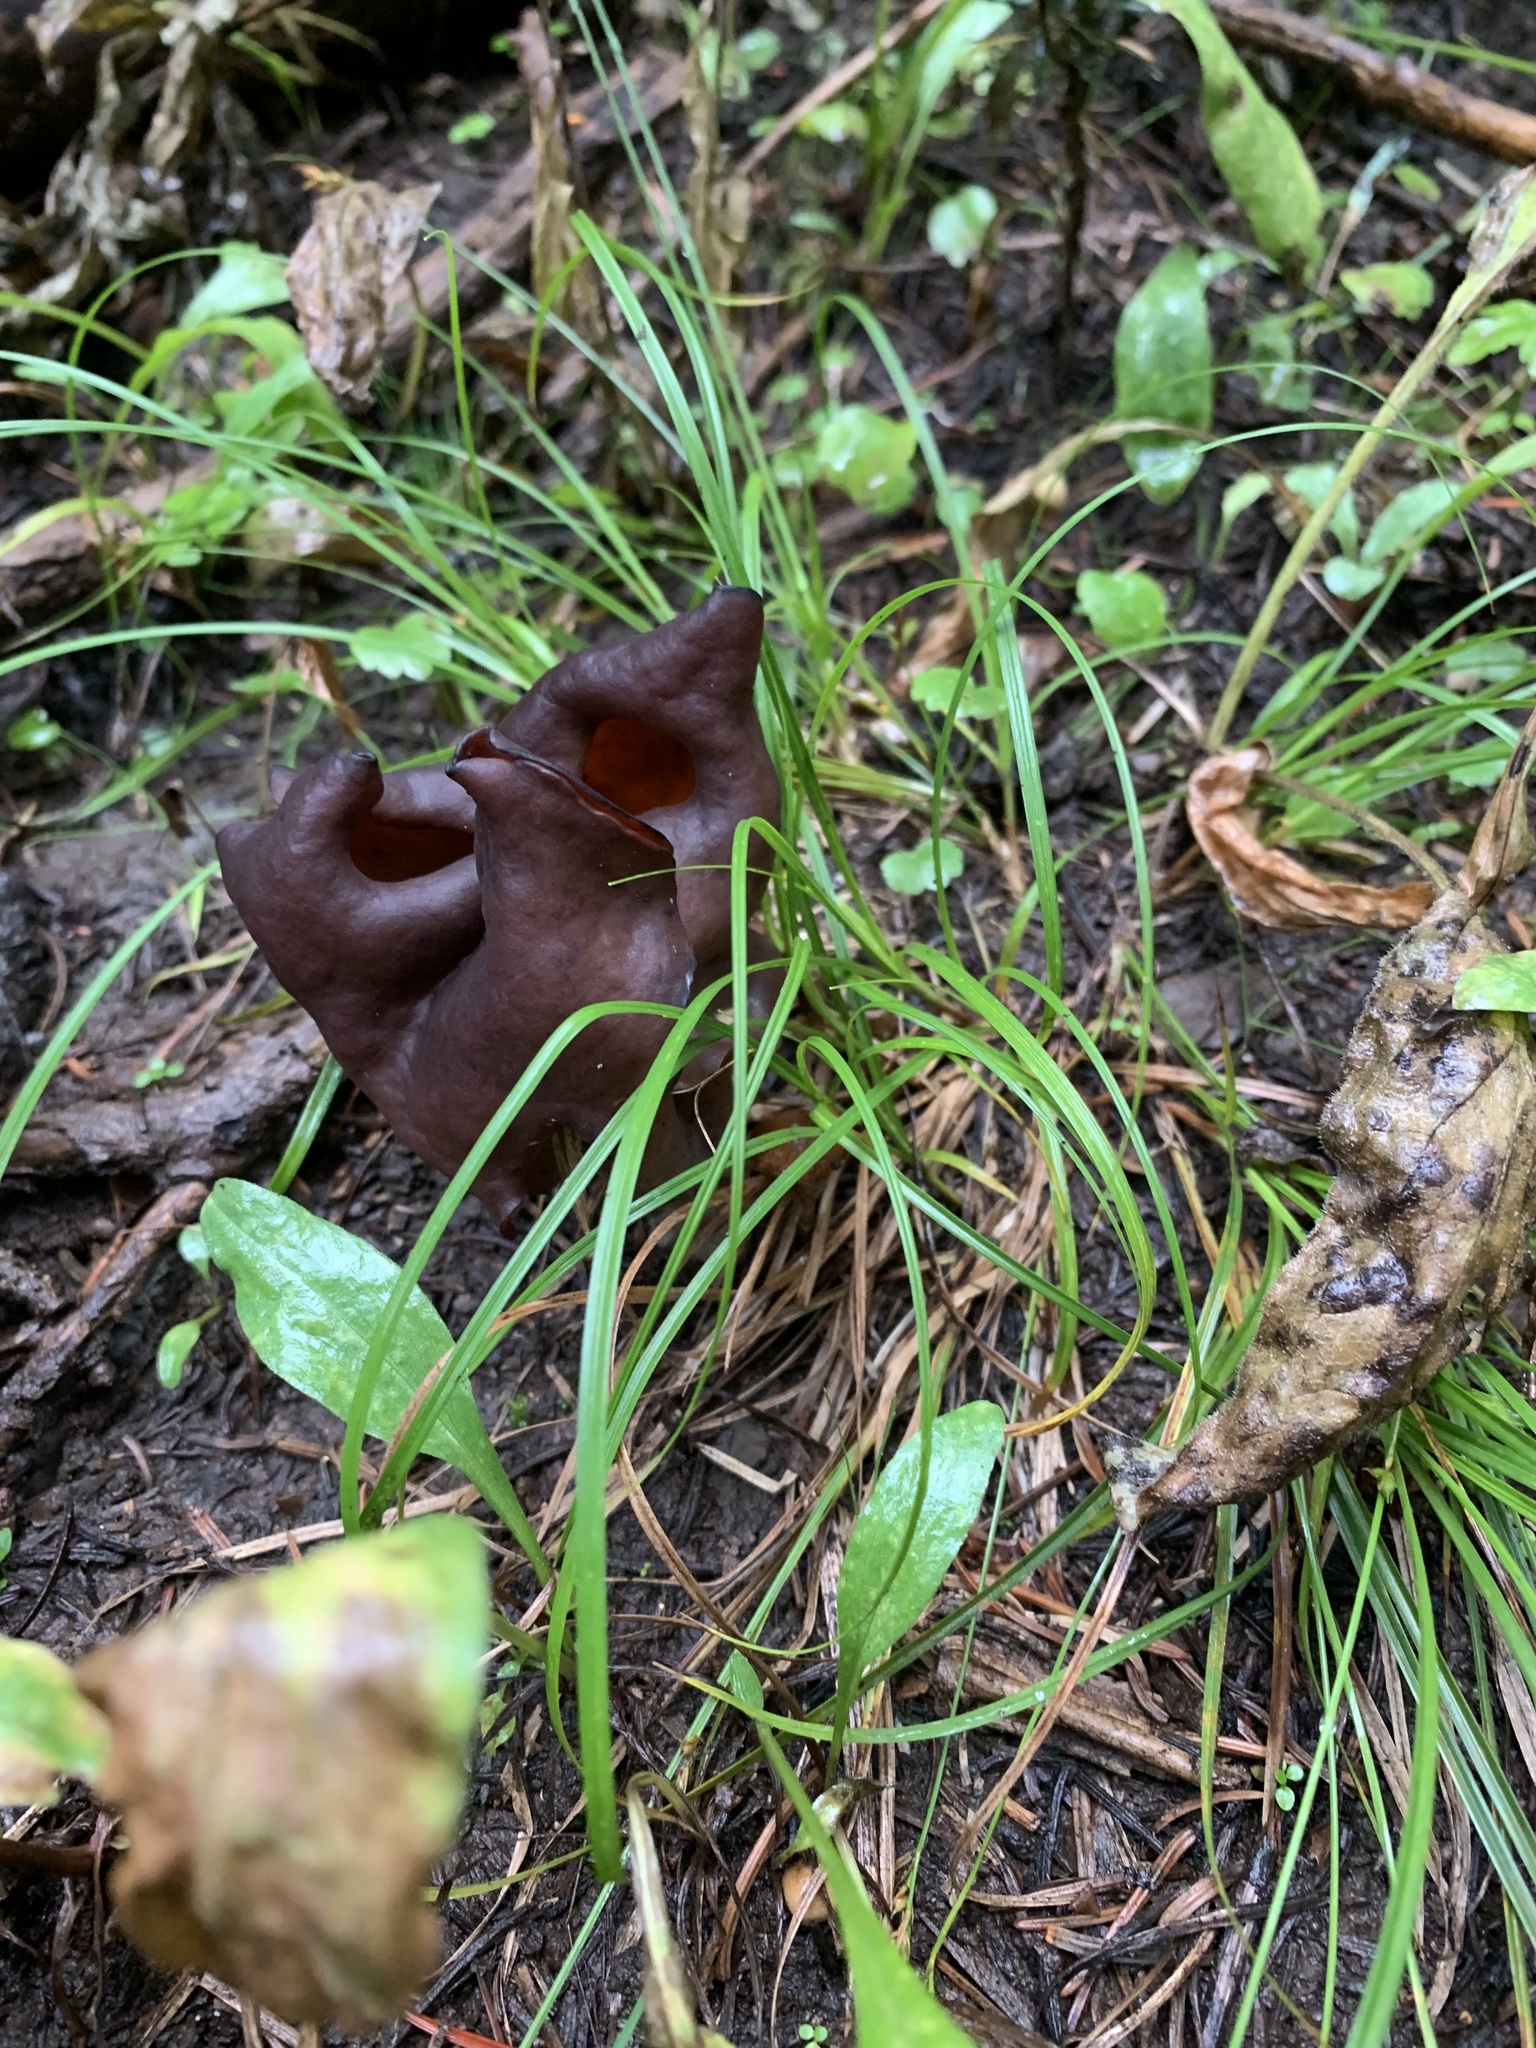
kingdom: Fungi
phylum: Ascomycota
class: Pezizomycetes
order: Pezizales
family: Discinaceae
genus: Gyromitra
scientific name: Gyromitra infula
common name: Pouched false morel
